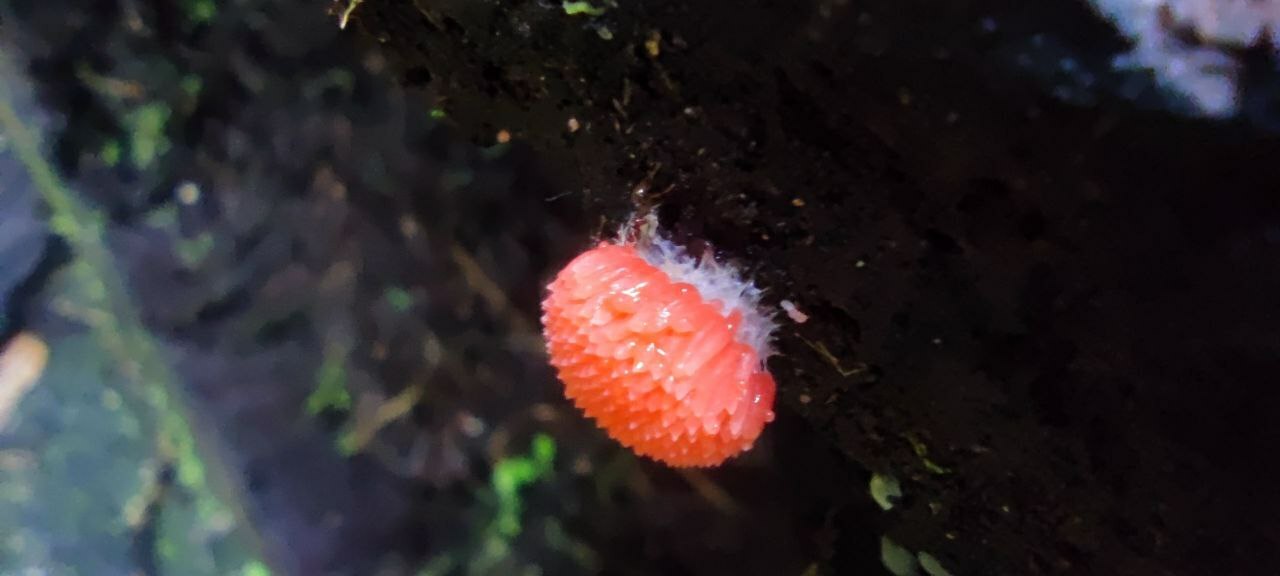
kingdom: Protozoa
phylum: Mycetozoa
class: Myxomycetes
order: Cribrariales
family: Tubiferaceae
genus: Tubifera
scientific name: Tubifera ferruginosa
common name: Red raspberry slime mold
